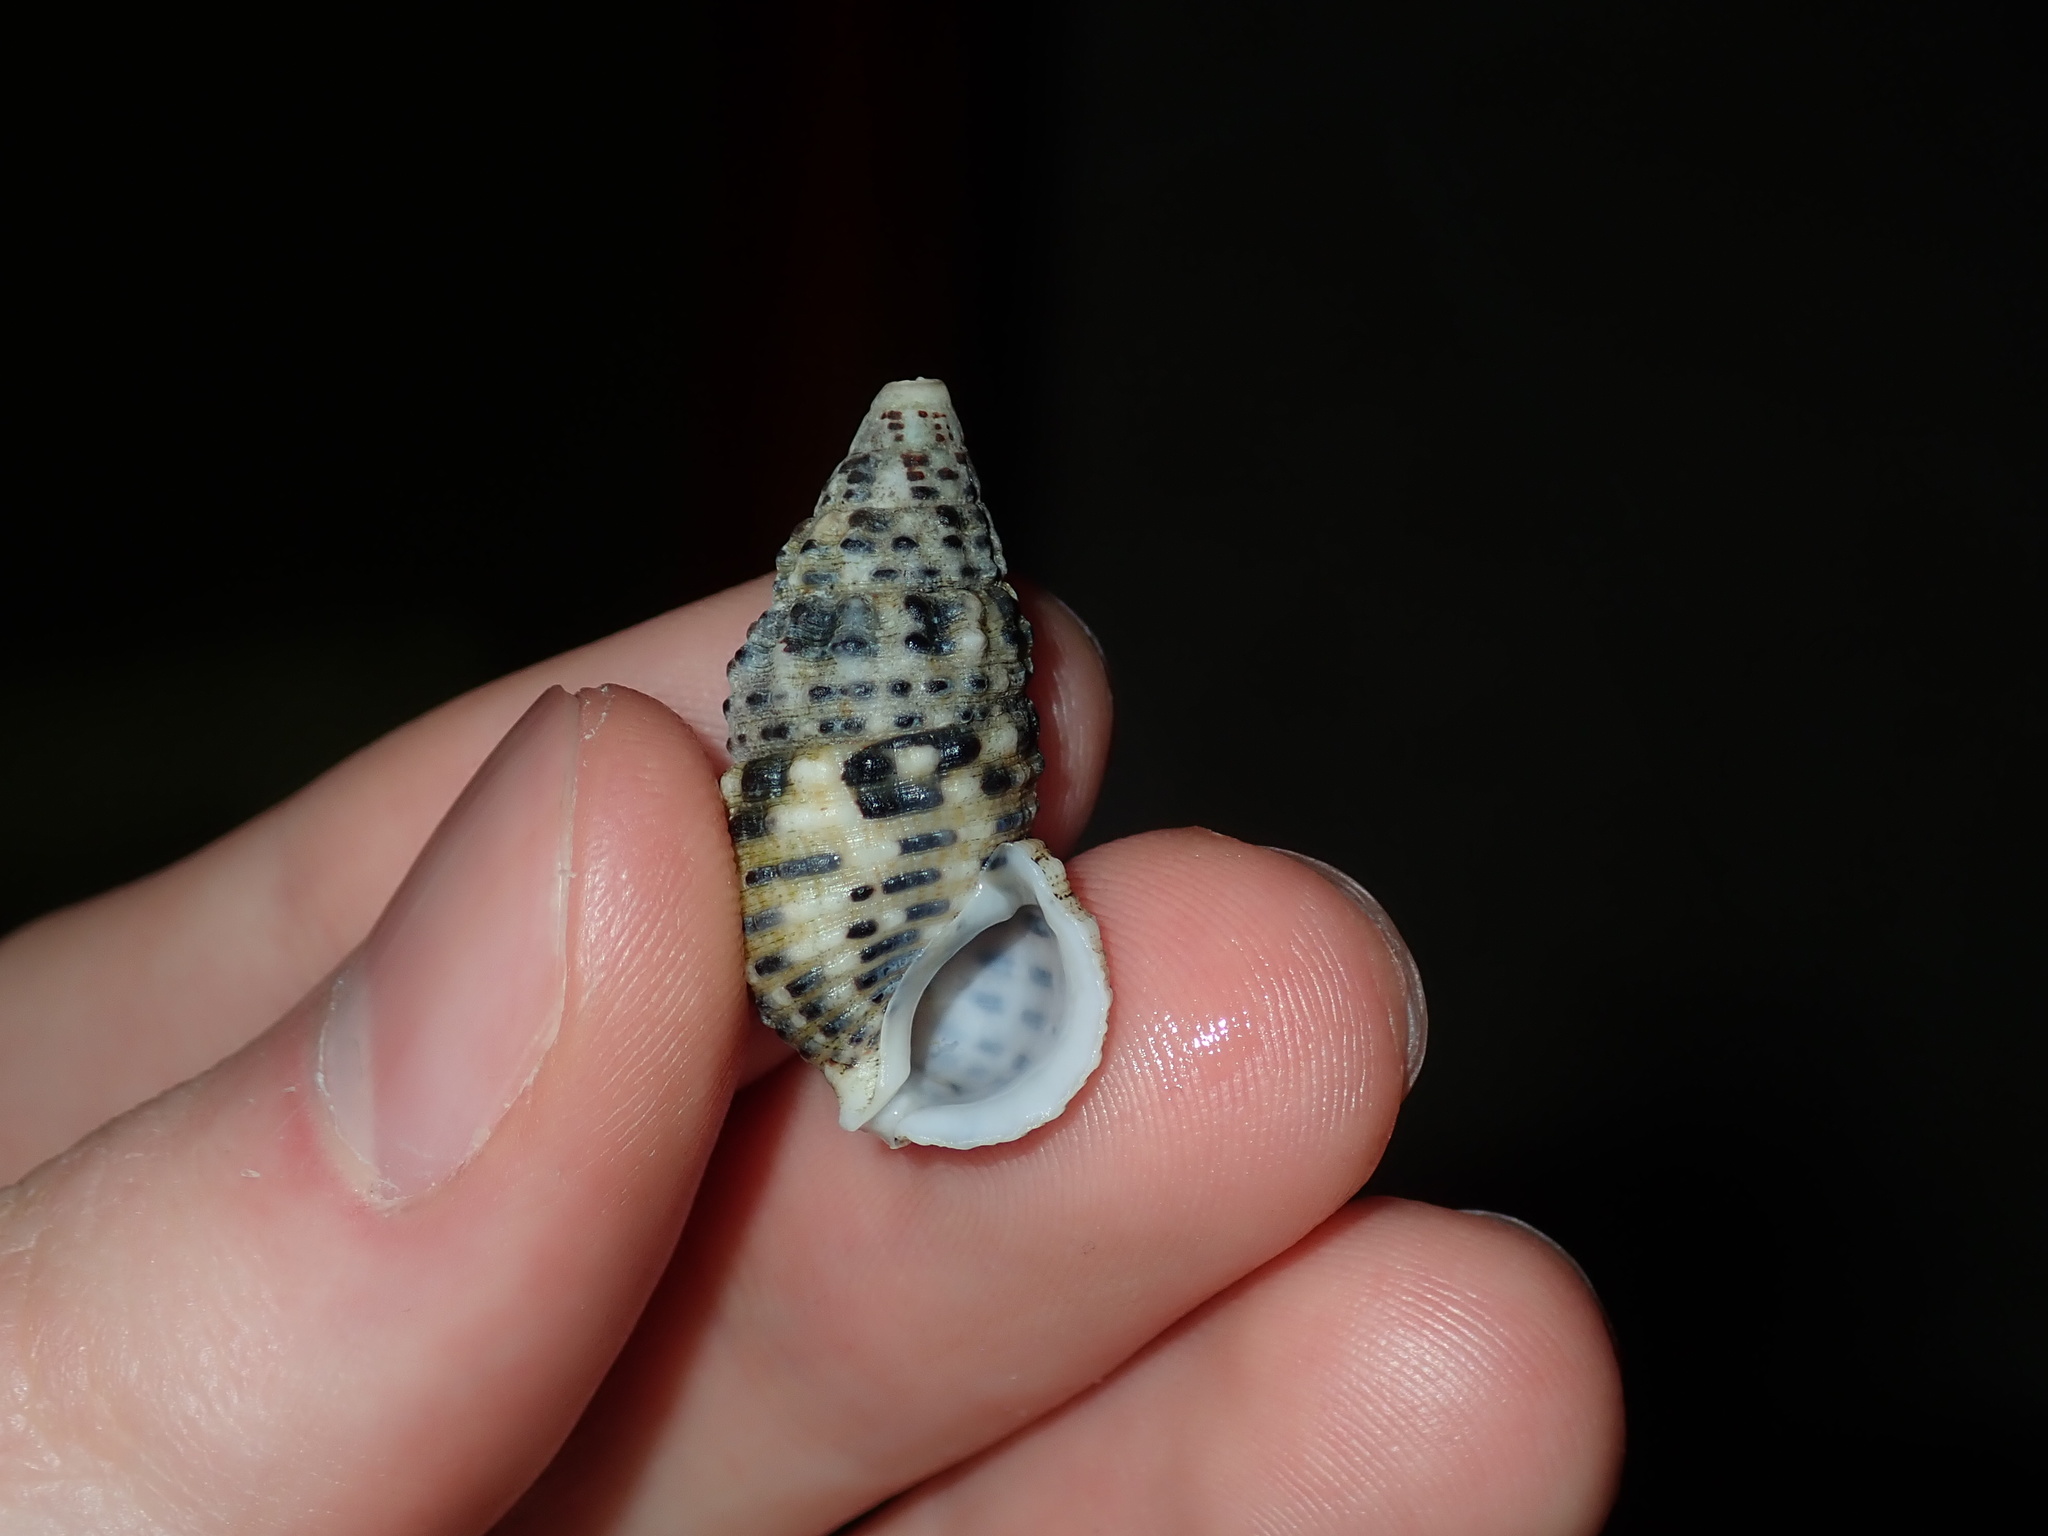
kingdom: Animalia
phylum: Mollusca
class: Gastropoda
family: Cerithiidae
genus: Clypeomorus
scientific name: Clypeomorus petrosa
